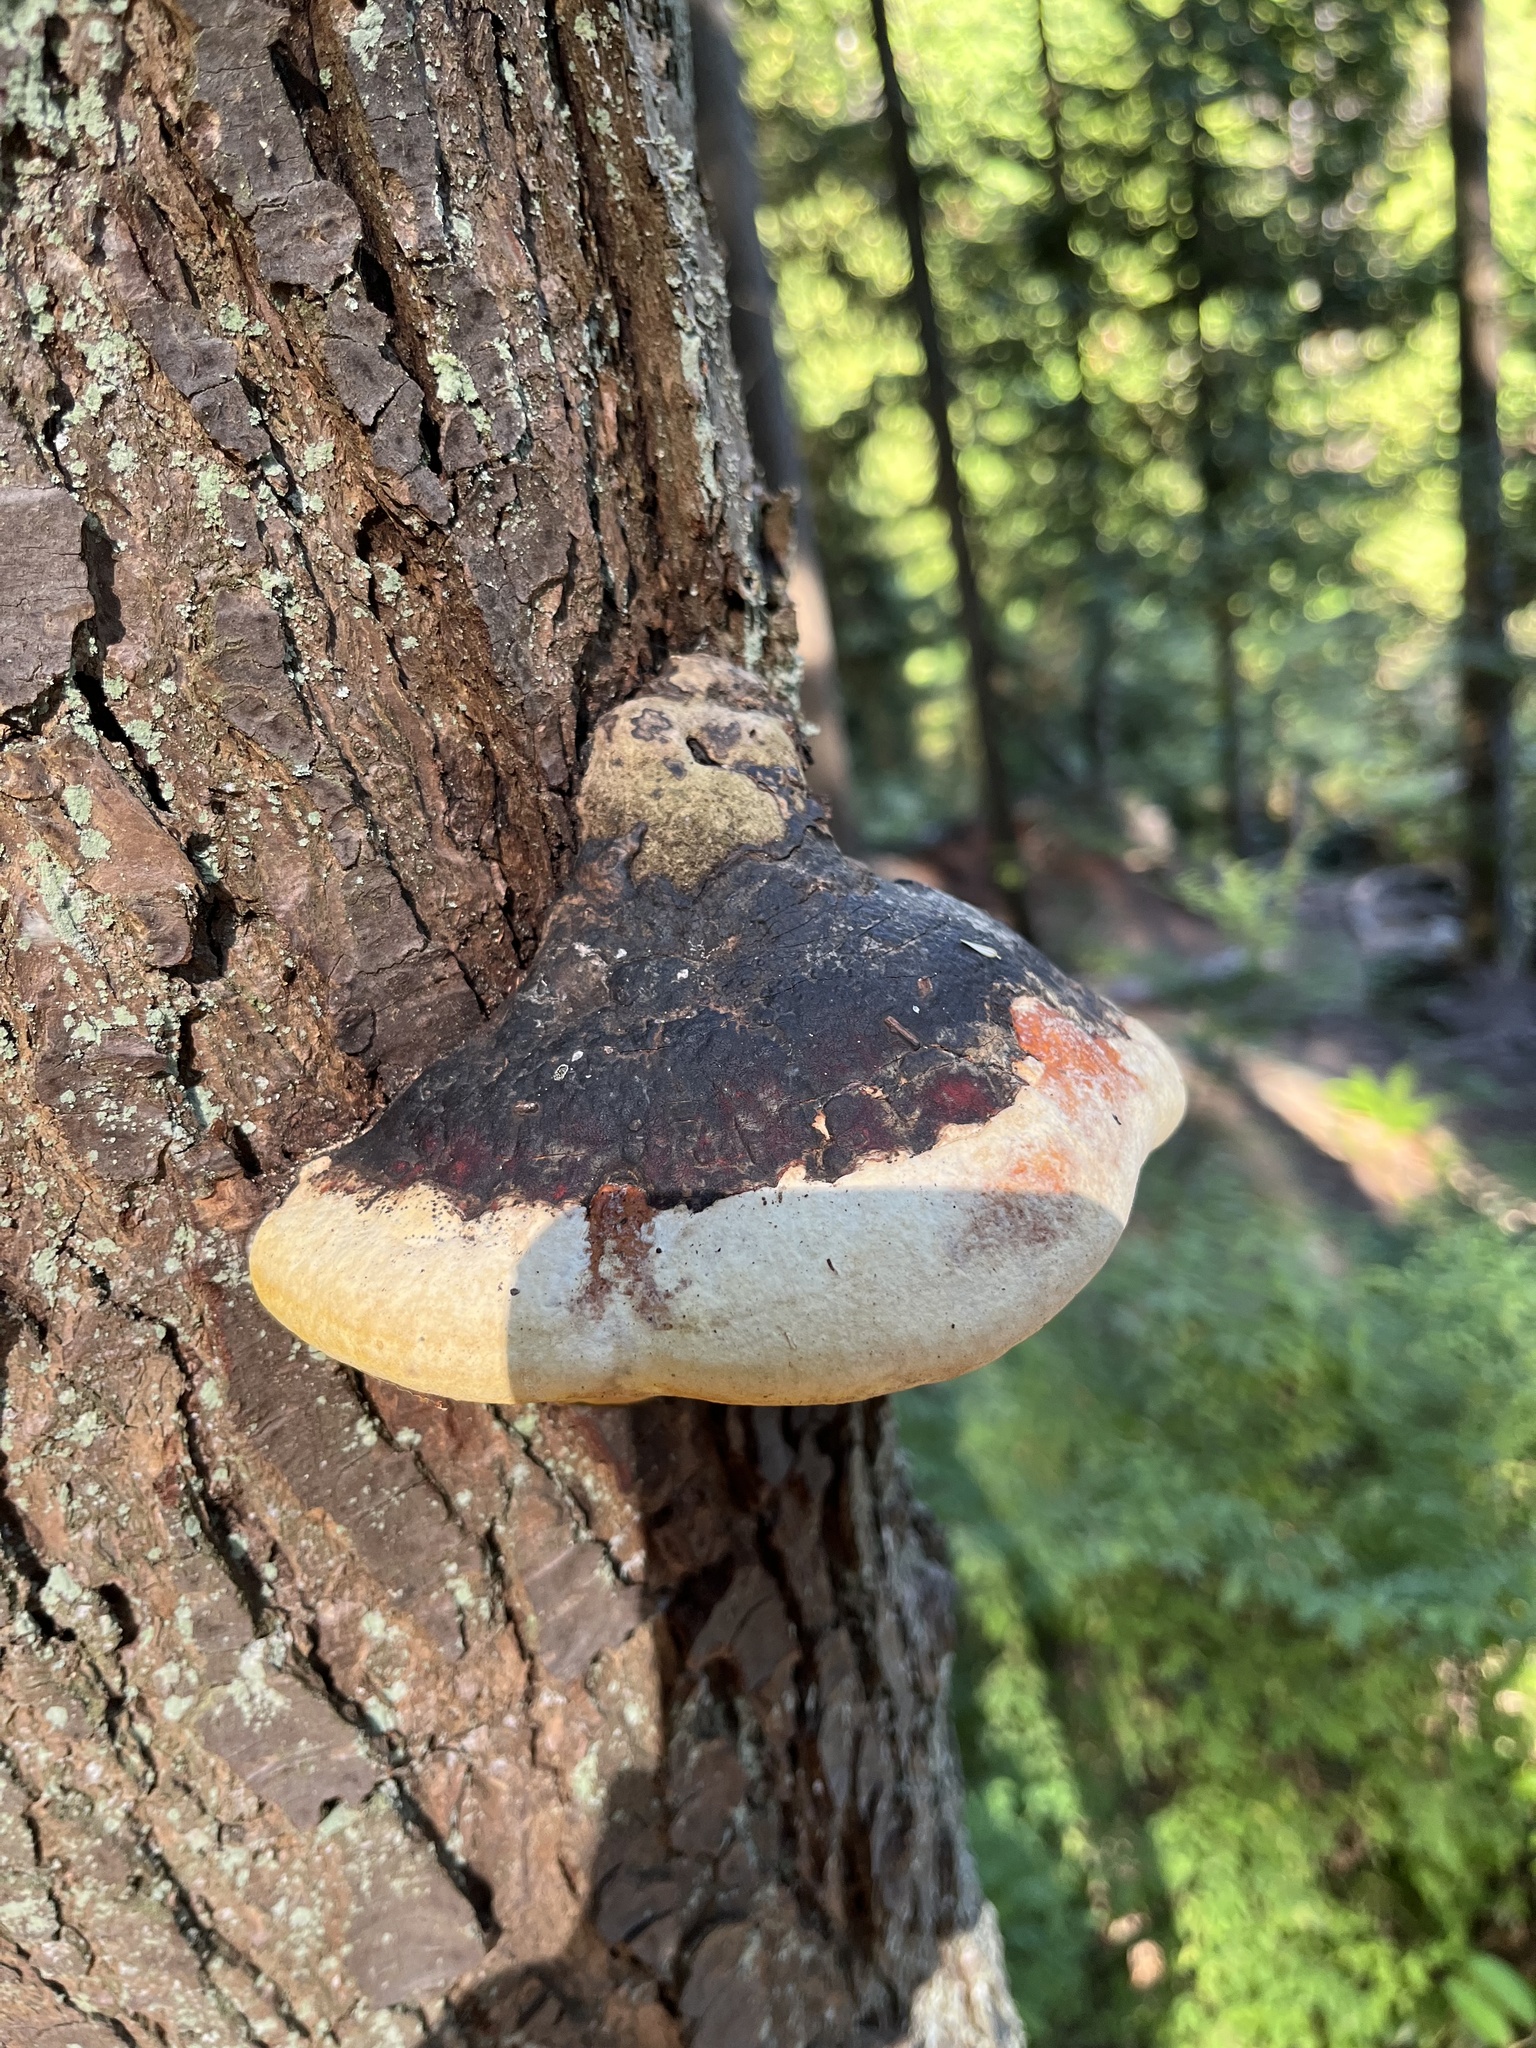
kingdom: Fungi
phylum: Basidiomycota
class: Agaricomycetes
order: Polyporales
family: Fomitopsidaceae
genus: Fomitopsis
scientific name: Fomitopsis mounceae
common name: Northern red belt
